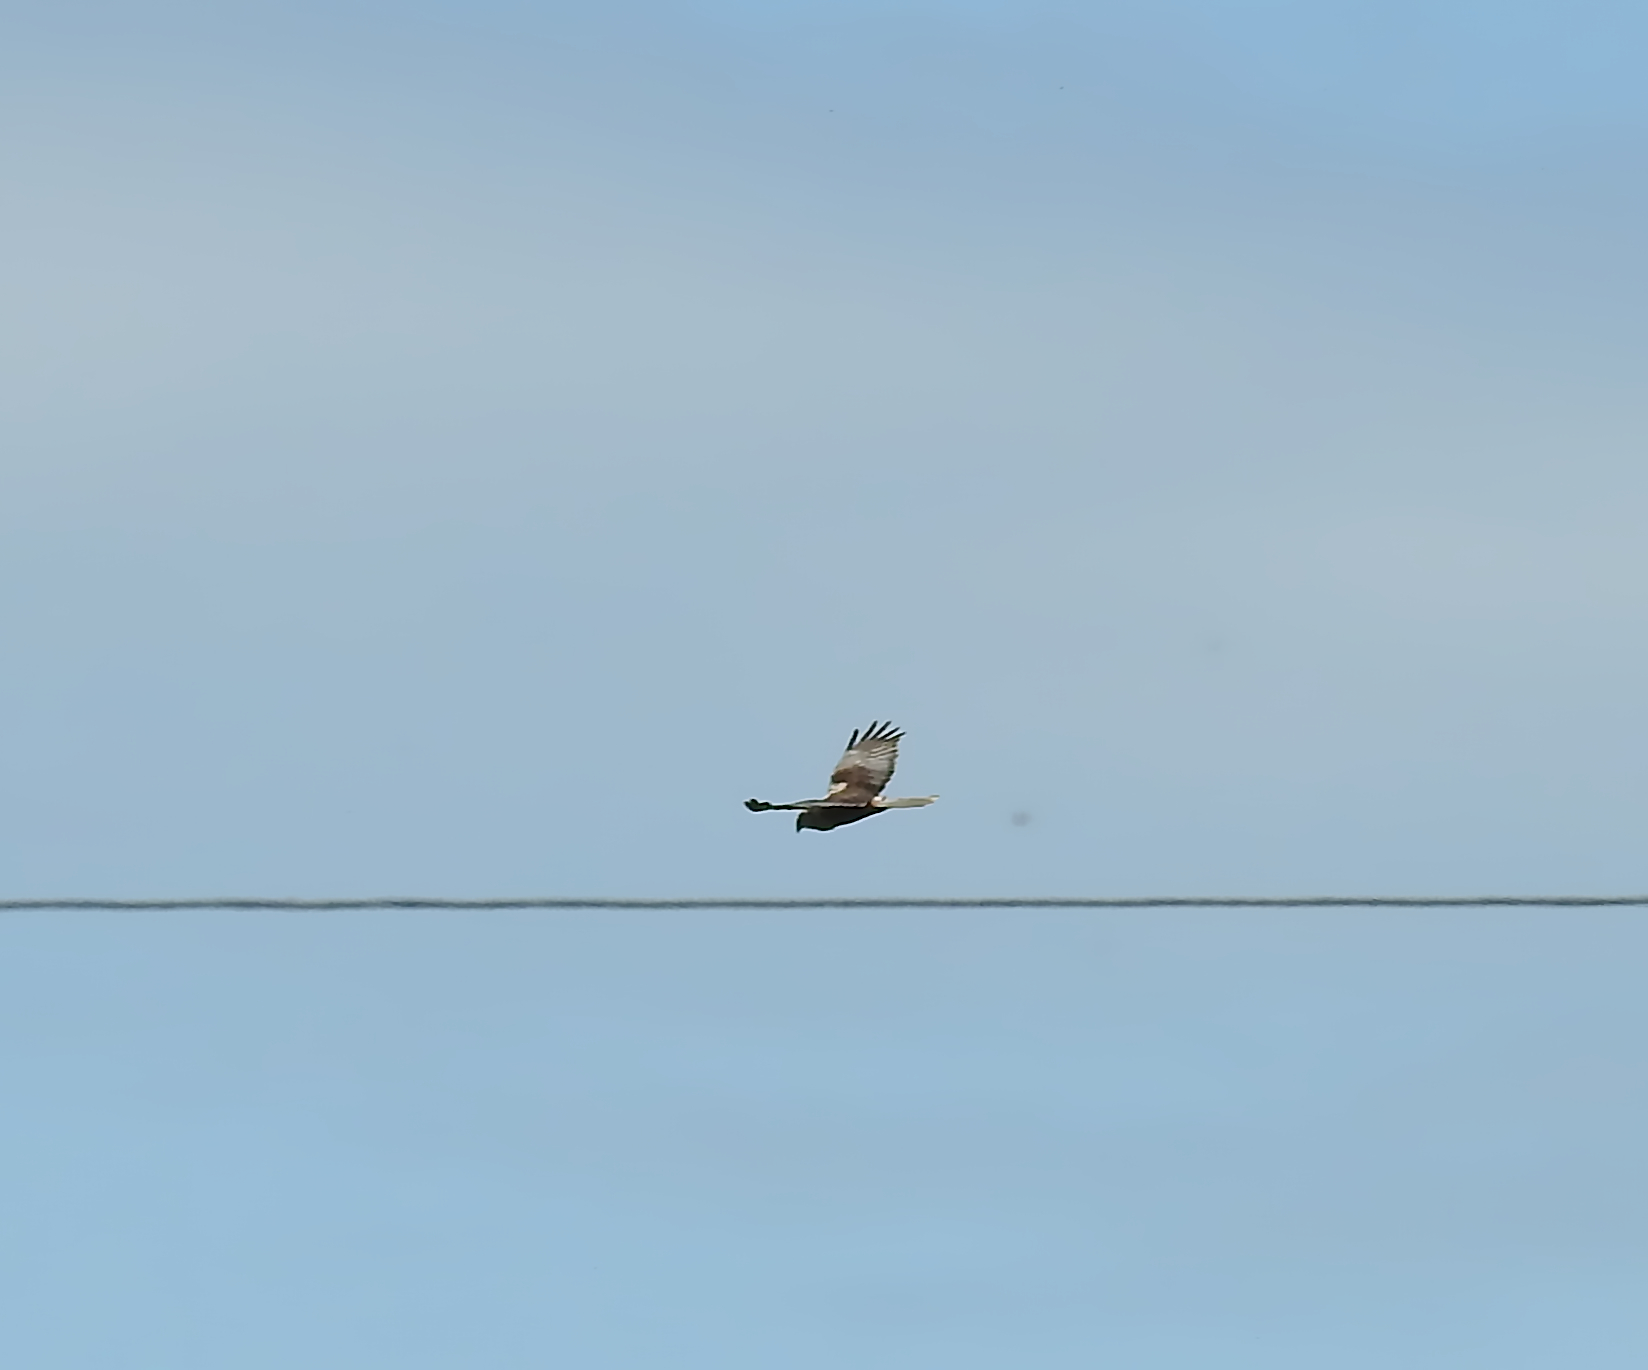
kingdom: Animalia
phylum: Chordata
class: Aves
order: Accipitriformes
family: Accipitridae
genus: Circus
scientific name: Circus aeruginosus
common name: Western marsh harrier
